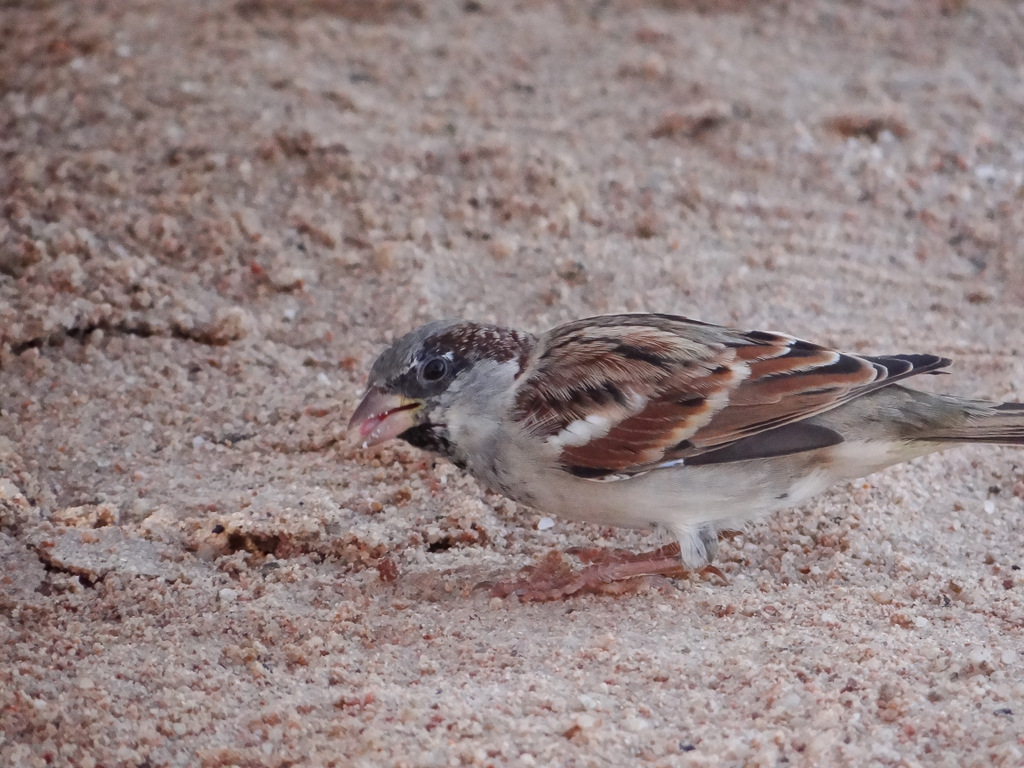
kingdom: Animalia
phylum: Chordata
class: Aves
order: Passeriformes
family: Passeridae
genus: Passer
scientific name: Passer domesticus
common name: House sparrow
